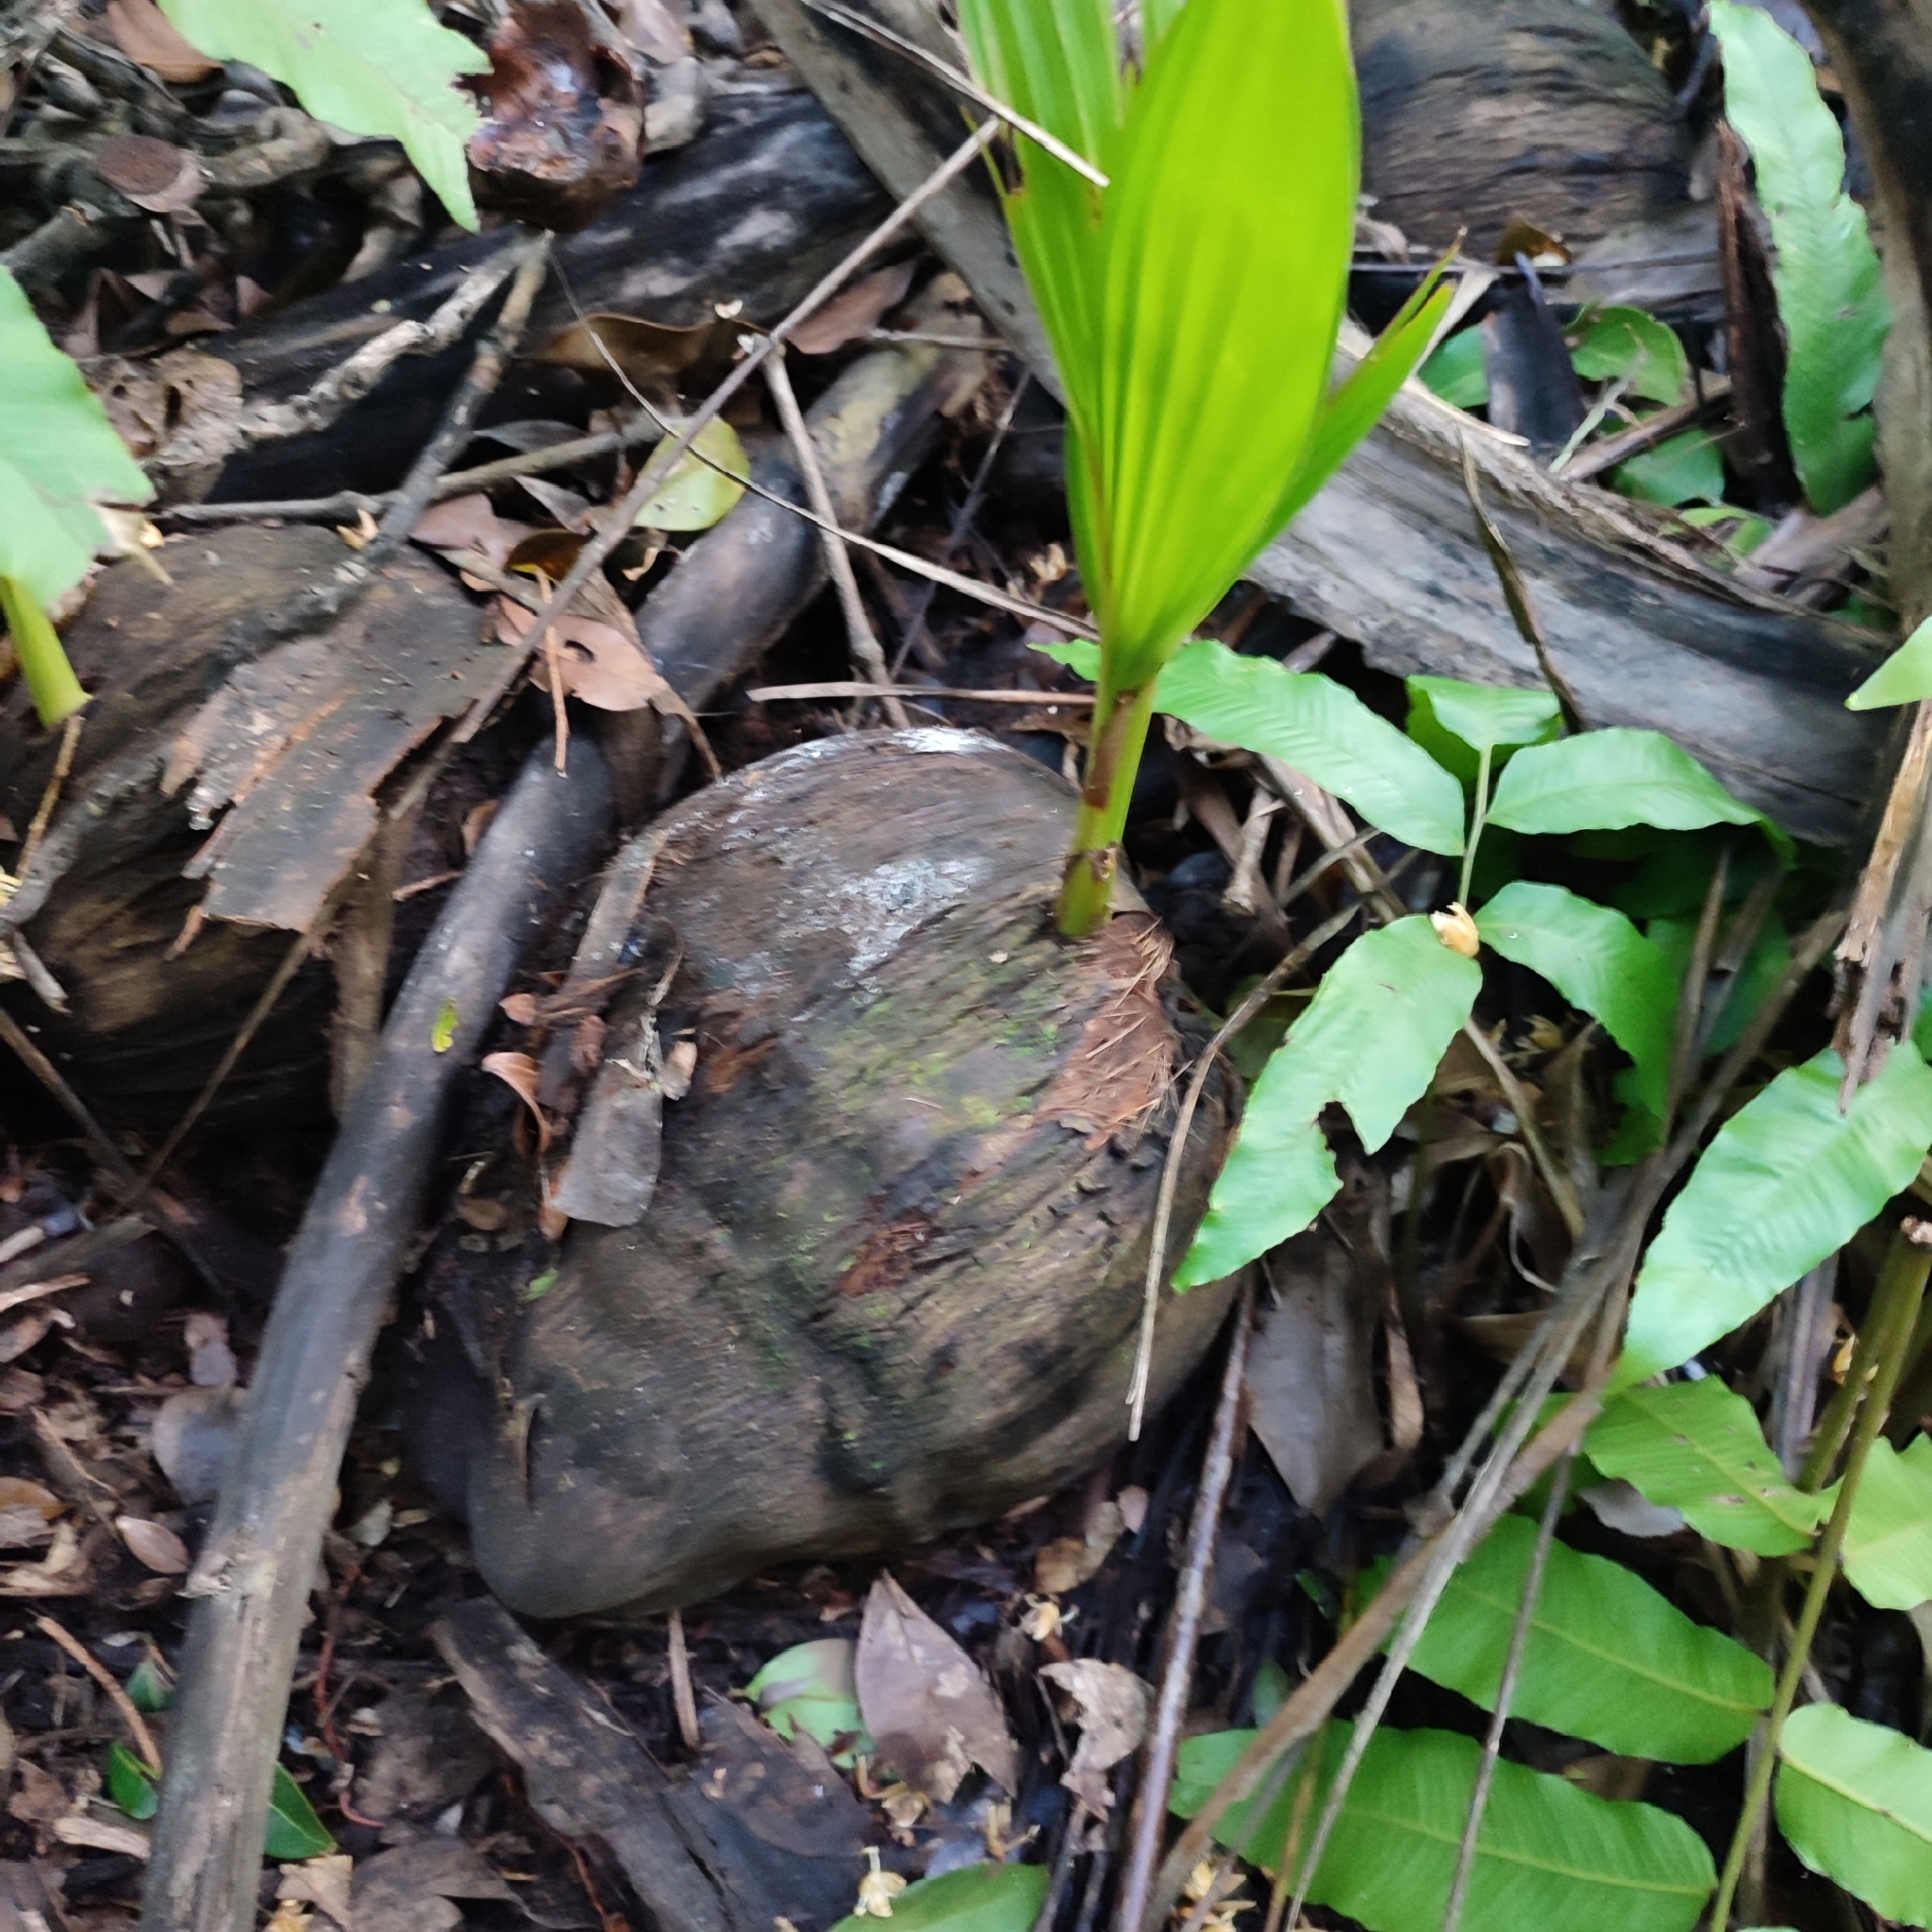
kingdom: Plantae
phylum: Tracheophyta
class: Liliopsida
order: Arecales
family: Arecaceae
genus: Cocos
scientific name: Cocos nucifera
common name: Coconut palm
